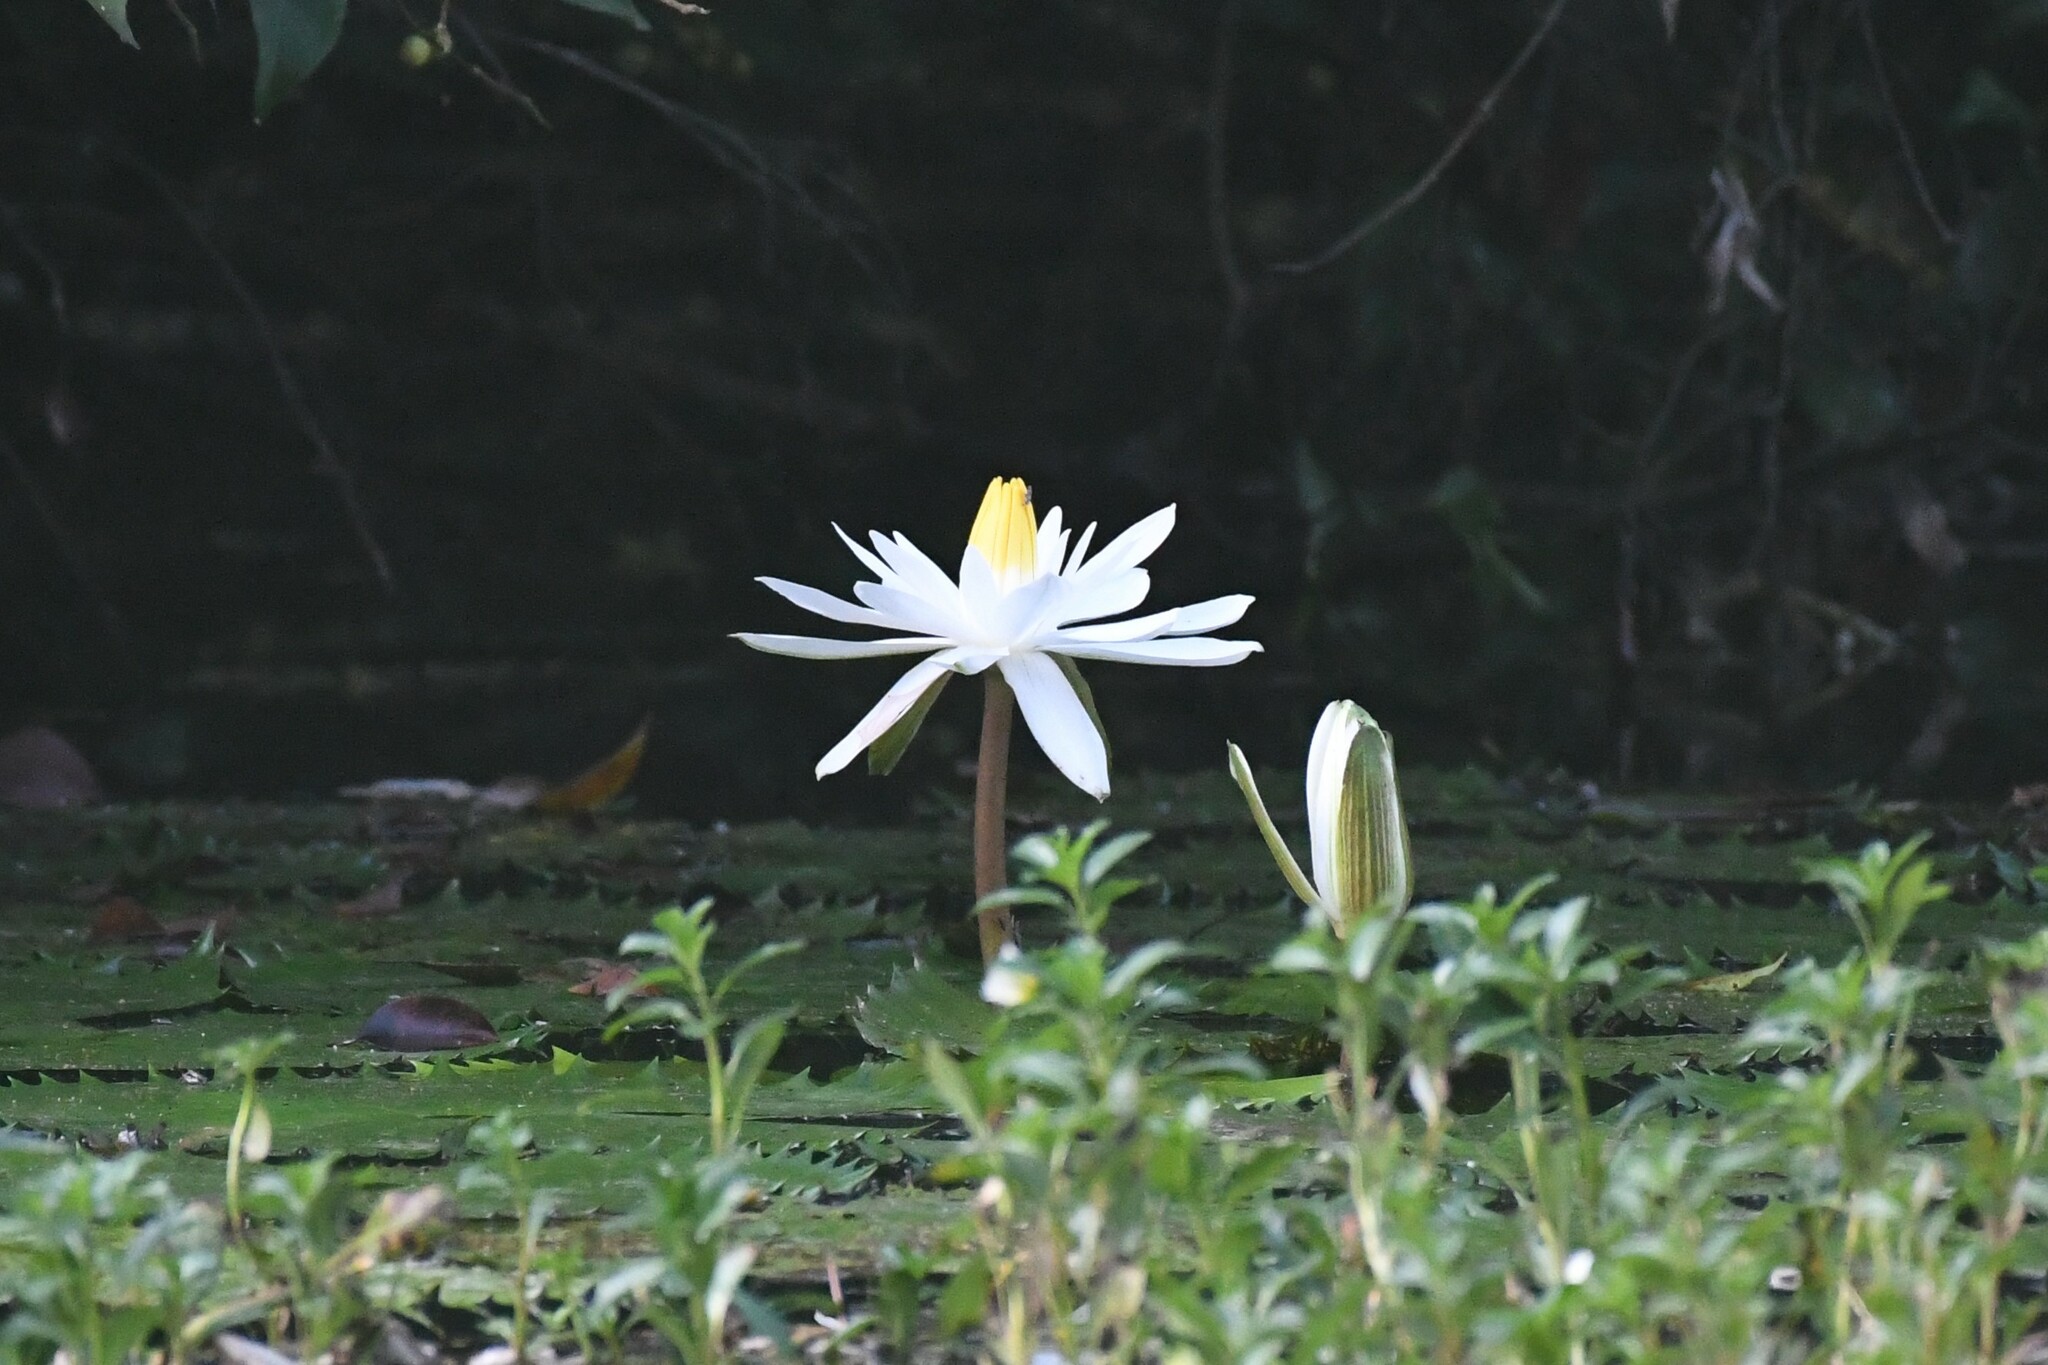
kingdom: Plantae
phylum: Tracheophyta
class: Magnoliopsida
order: Nymphaeales
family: Nymphaeaceae
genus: Nymphaea
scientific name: Nymphaea lotus
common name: White egyptian lotus
